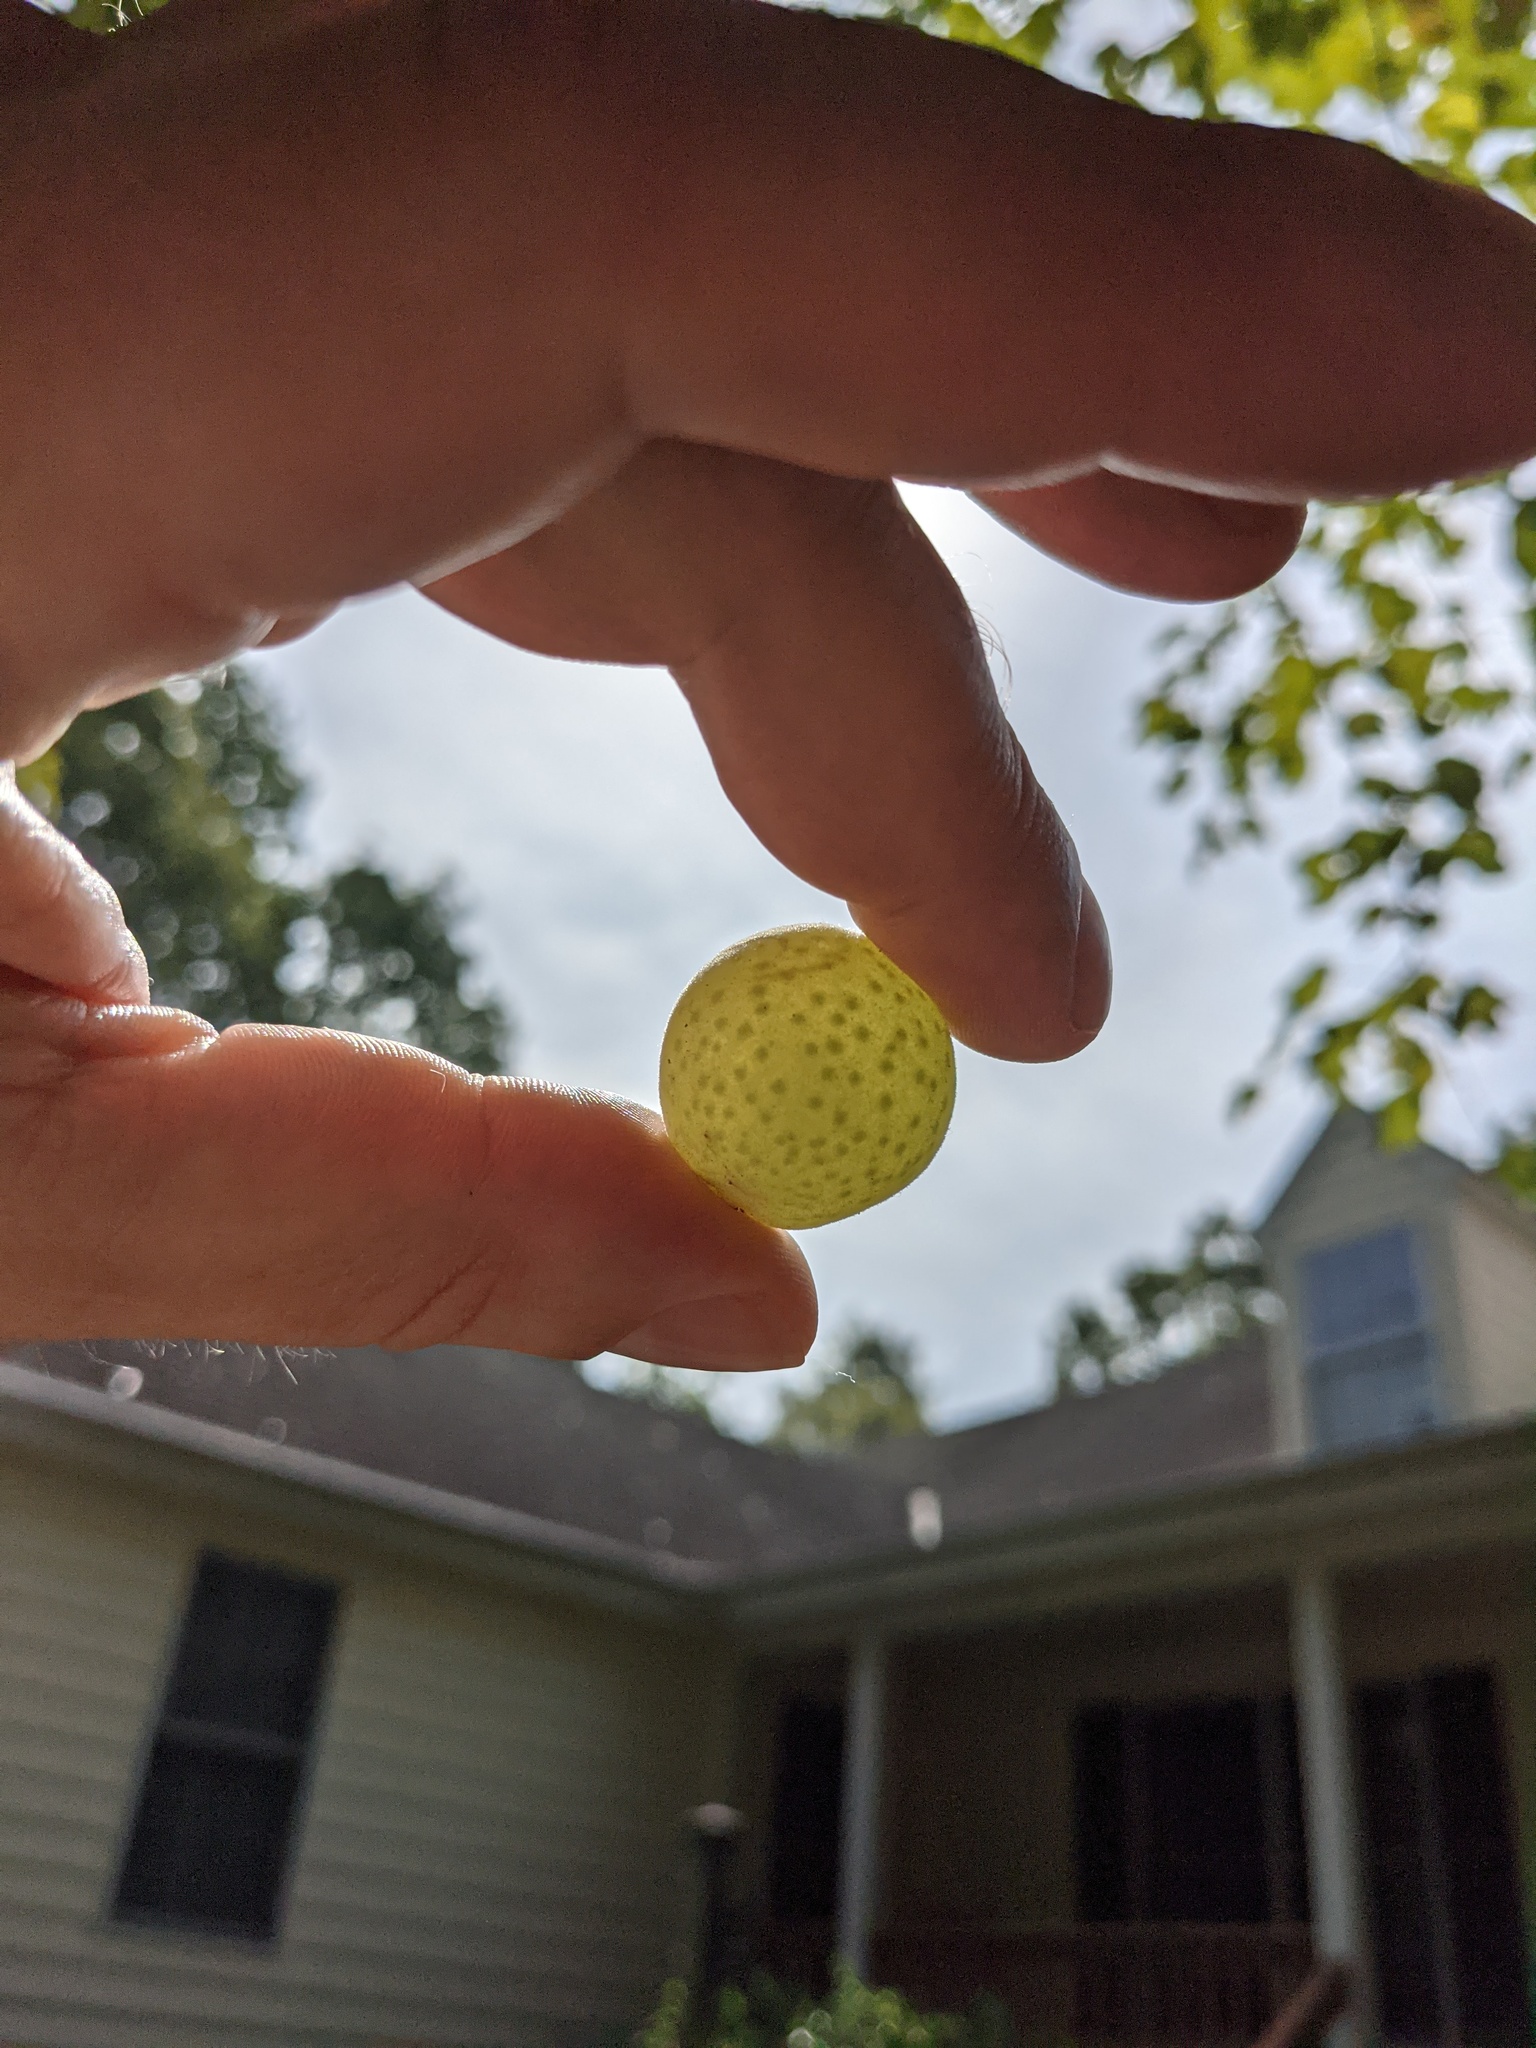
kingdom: Animalia
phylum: Arthropoda
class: Insecta
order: Hymenoptera
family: Cynipidae
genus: Atrusca
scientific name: Atrusca
